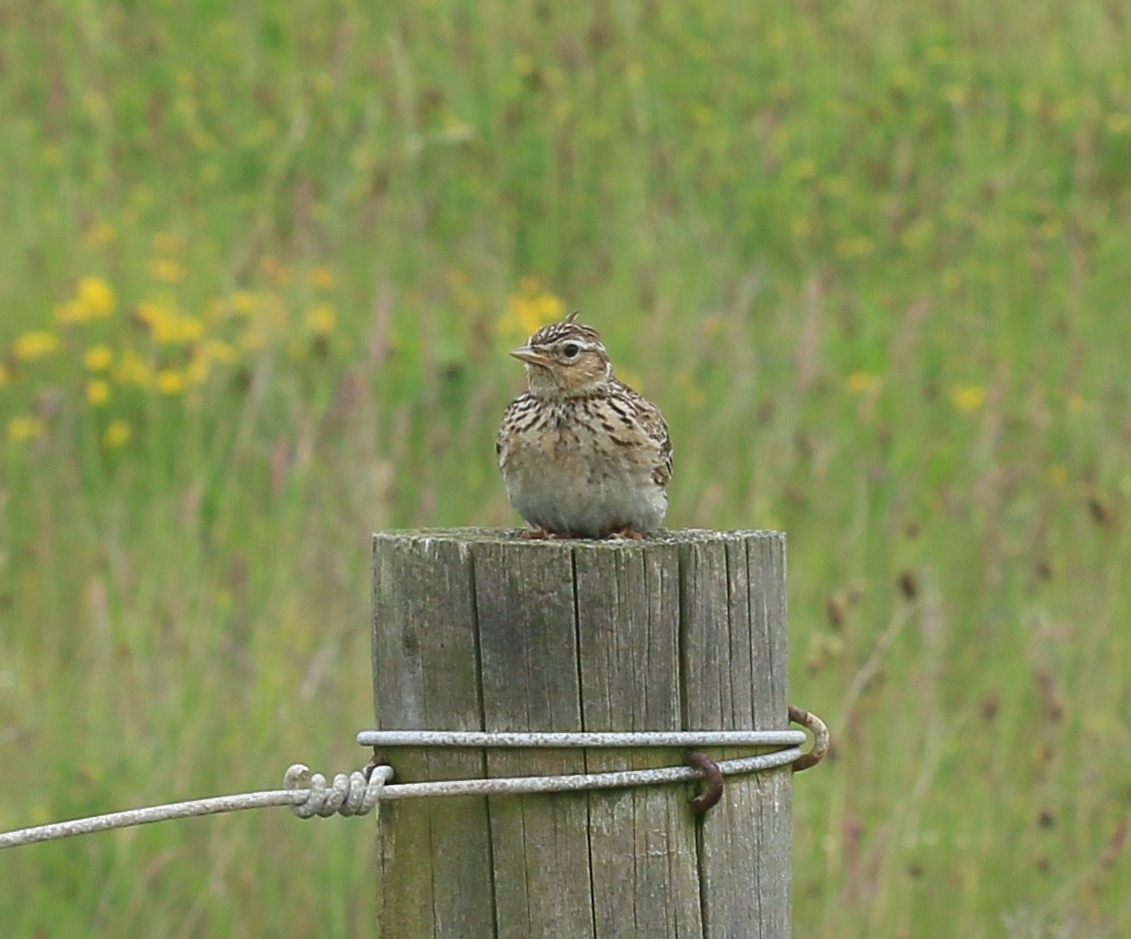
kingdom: Animalia
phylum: Chordata
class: Aves
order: Passeriformes
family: Alaudidae
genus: Alauda
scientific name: Alauda arvensis
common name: Eurasian skylark
